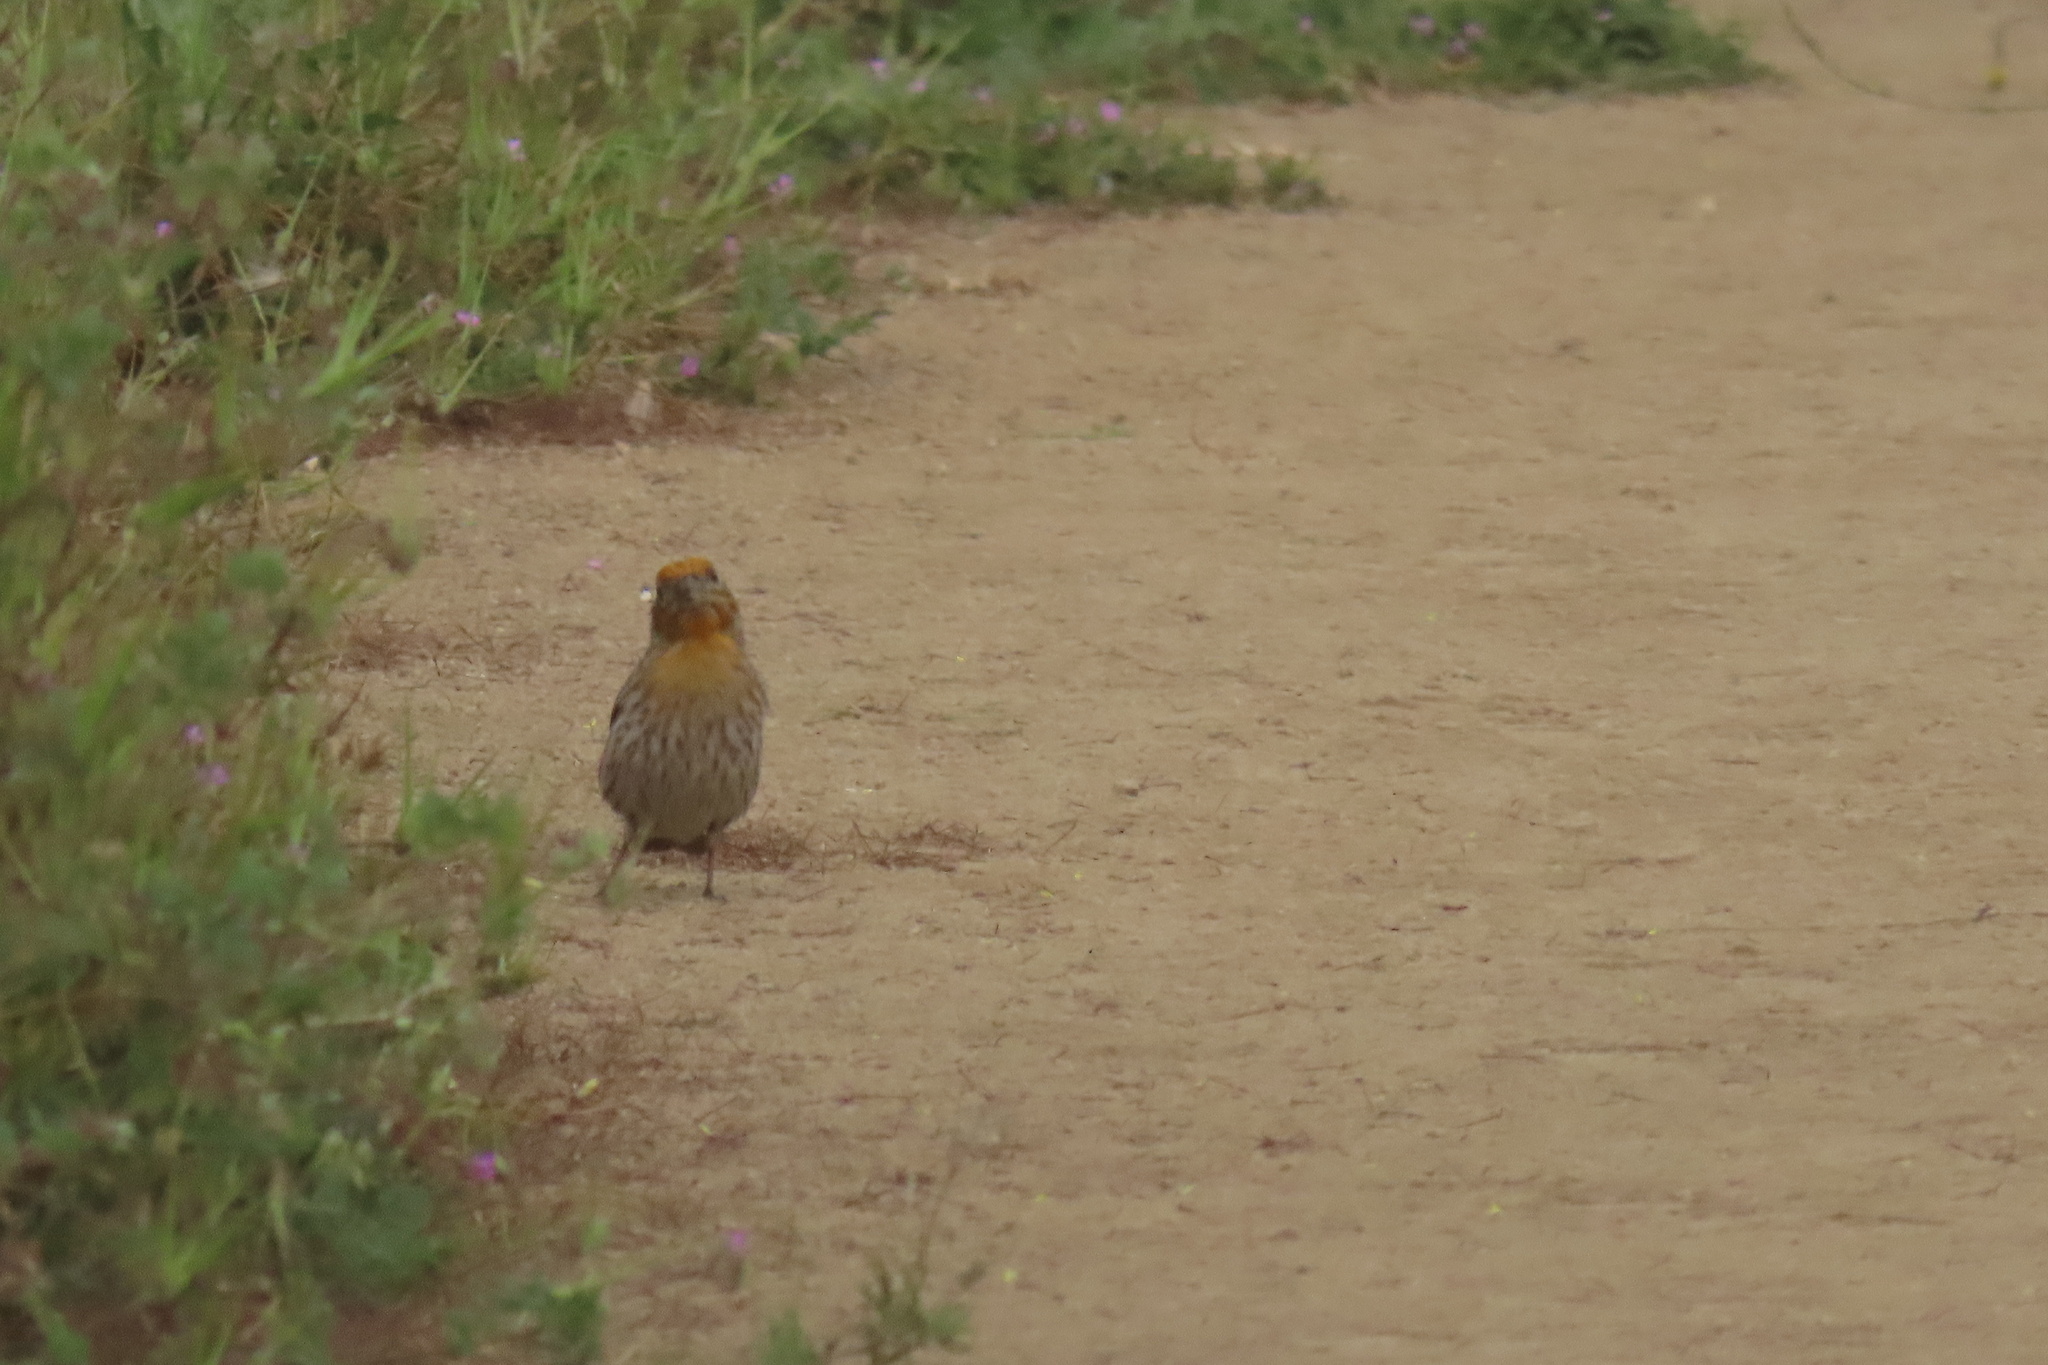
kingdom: Animalia
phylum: Chordata
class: Aves
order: Passeriformes
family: Fringillidae
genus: Haemorhous
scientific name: Haemorhous mexicanus
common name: House finch
